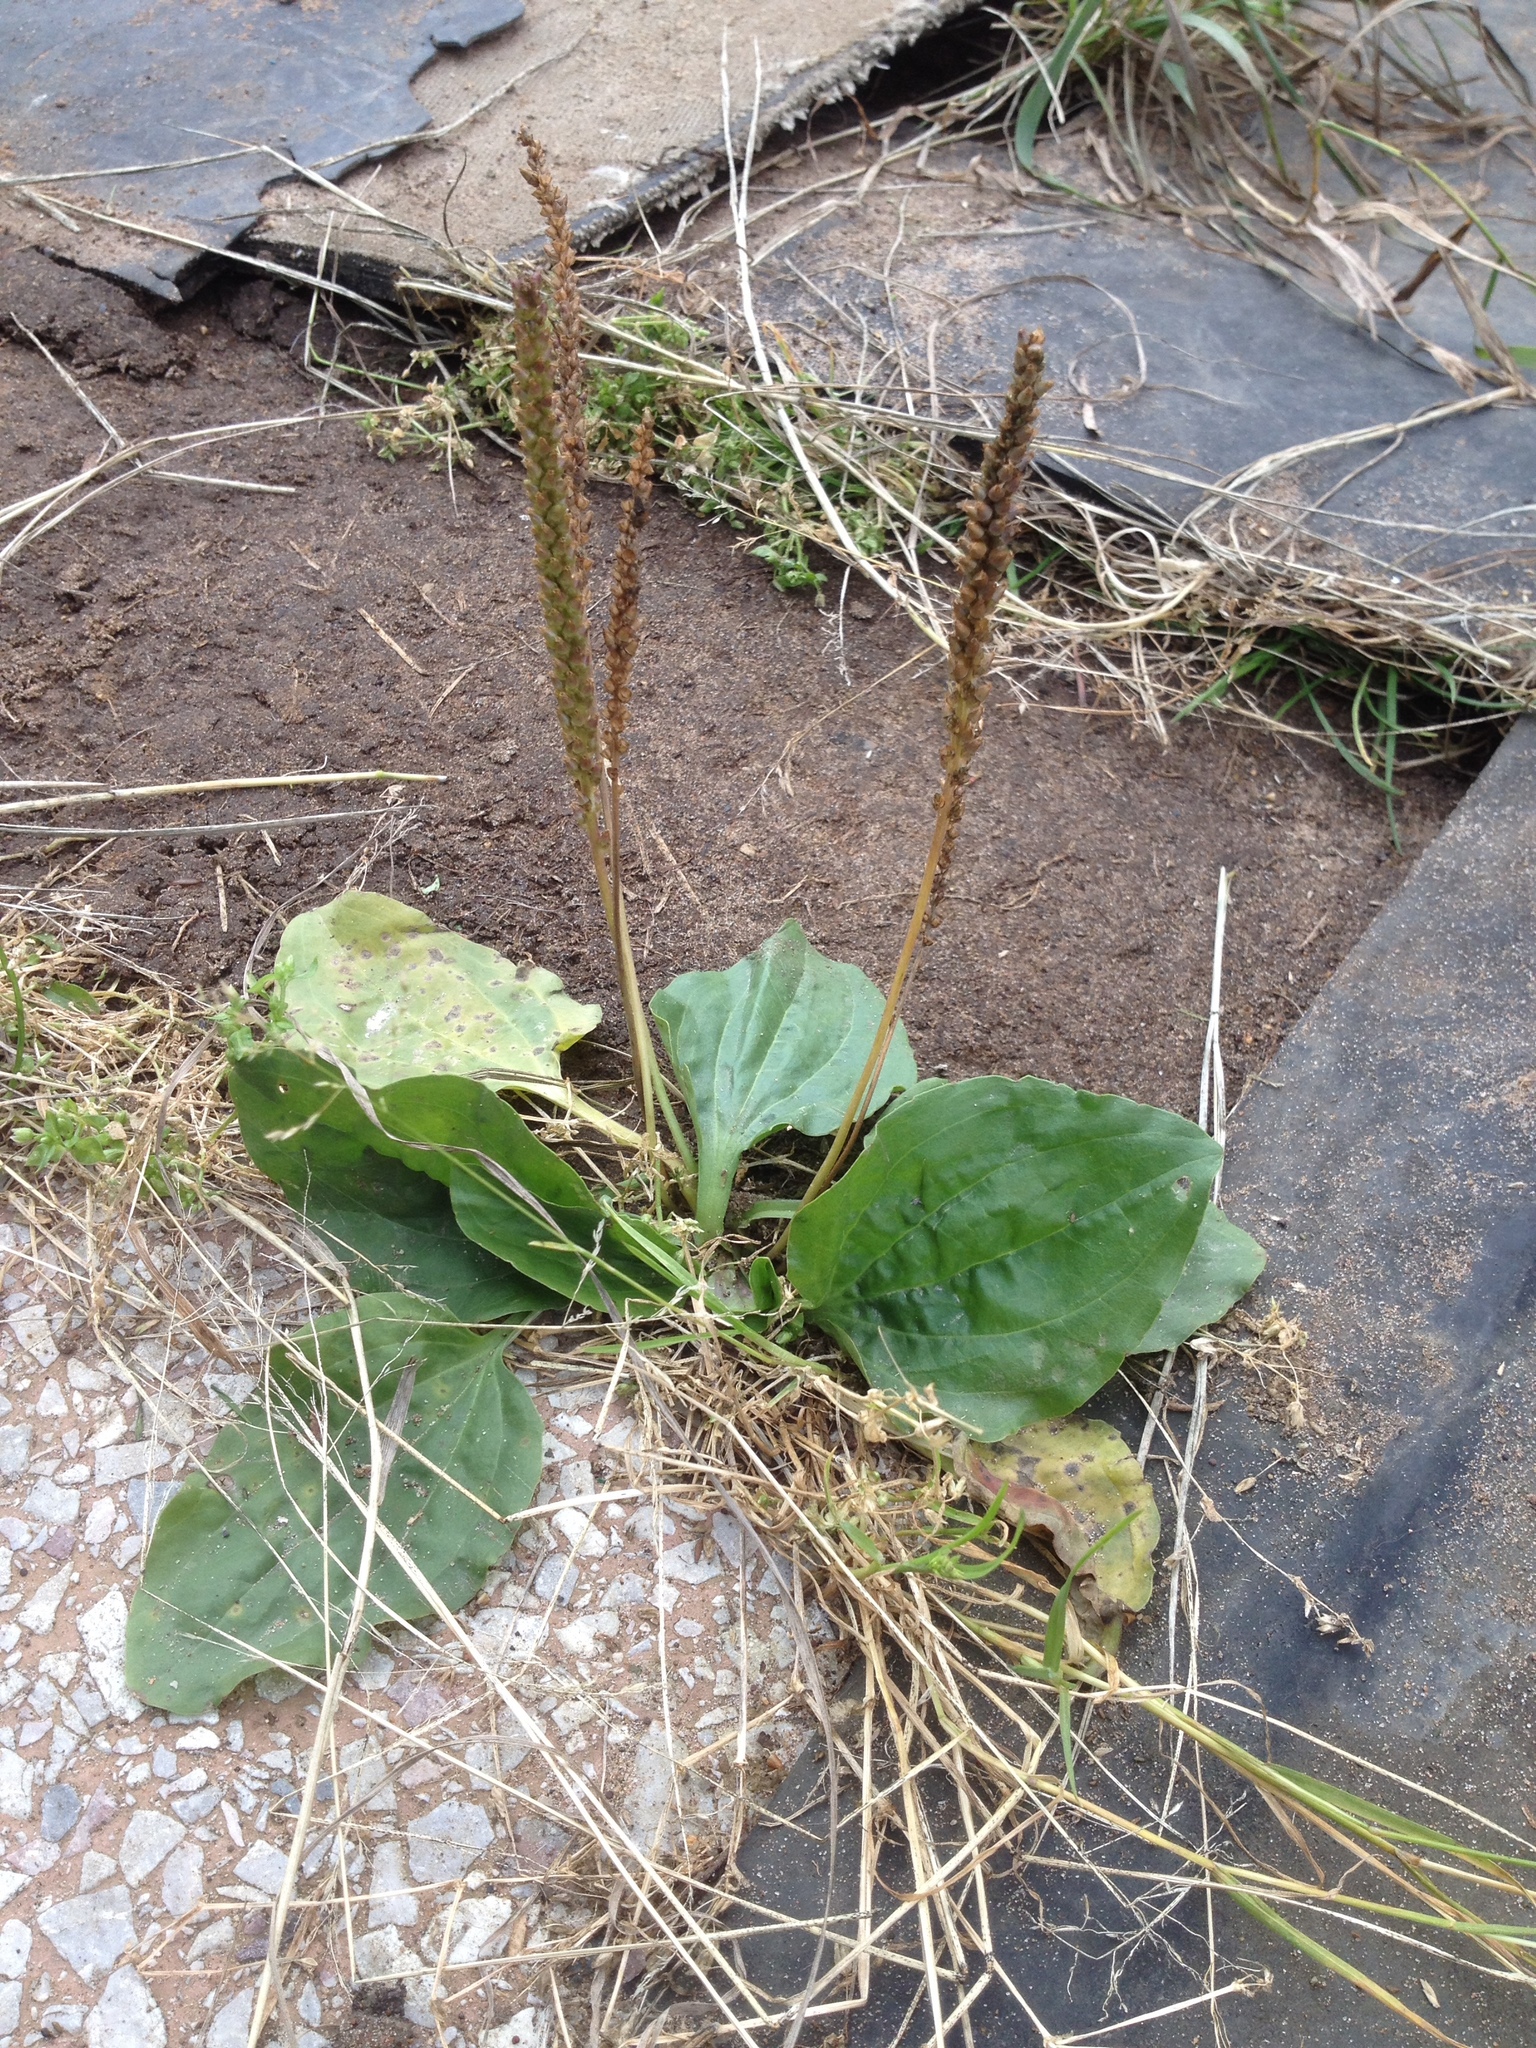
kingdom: Plantae
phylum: Tracheophyta
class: Magnoliopsida
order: Lamiales
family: Plantaginaceae
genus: Plantago
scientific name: Plantago major
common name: Common plantain
